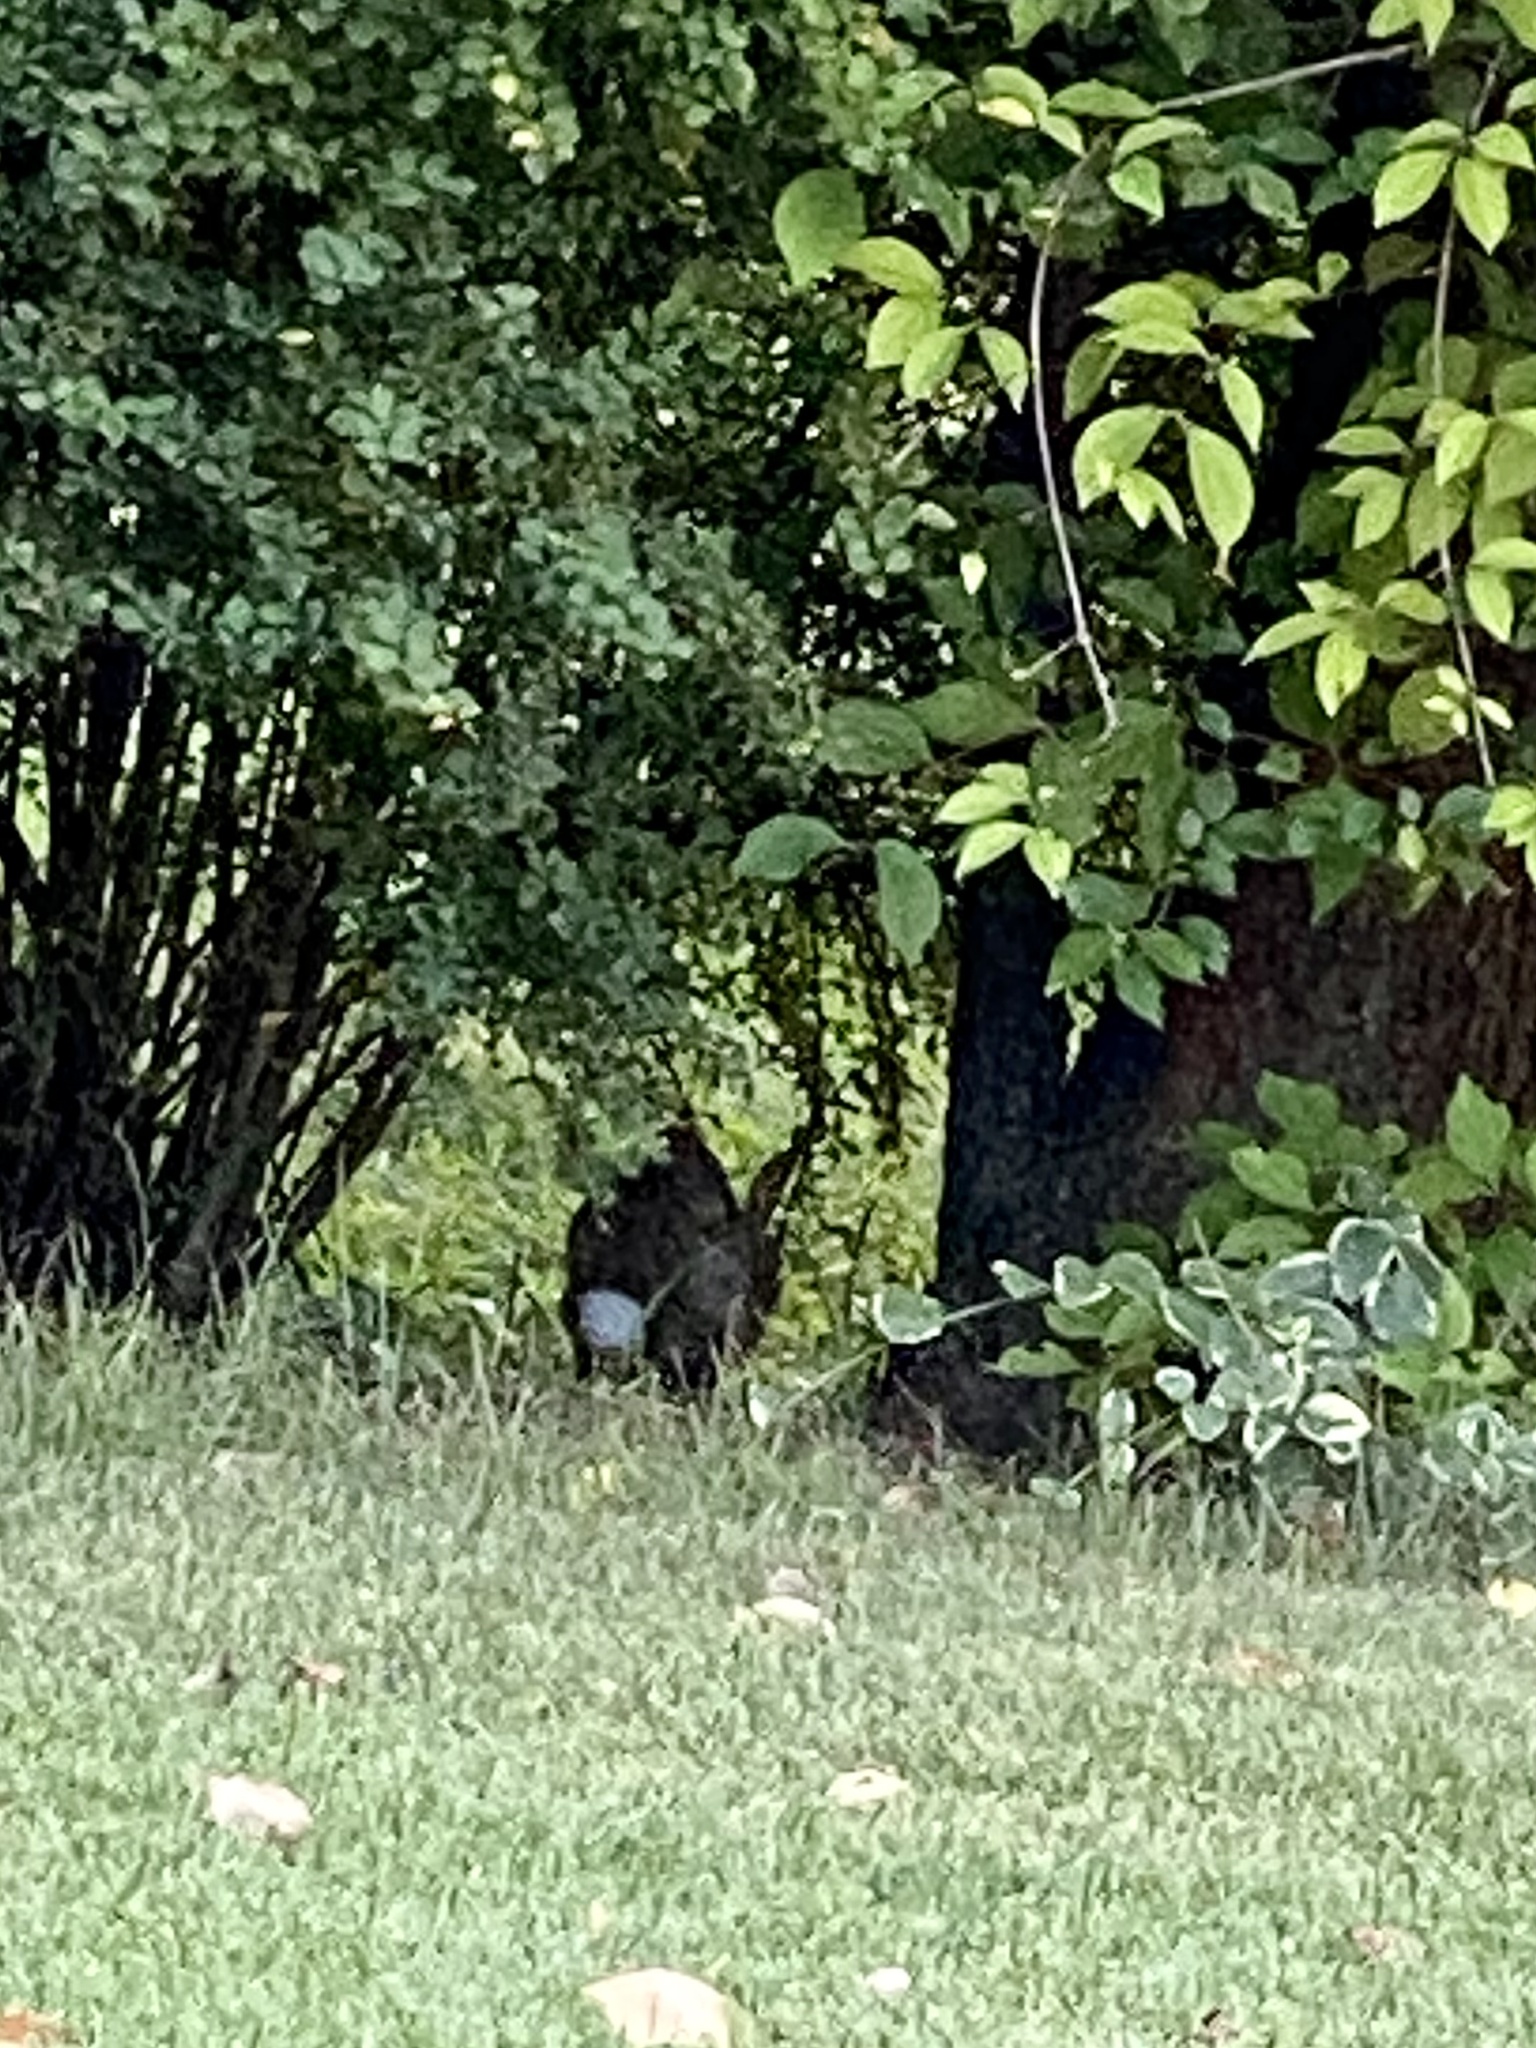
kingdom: Animalia
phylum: Chordata
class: Mammalia
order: Lagomorpha
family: Leporidae
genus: Sylvilagus
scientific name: Sylvilagus floridanus
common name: Eastern cottontail
